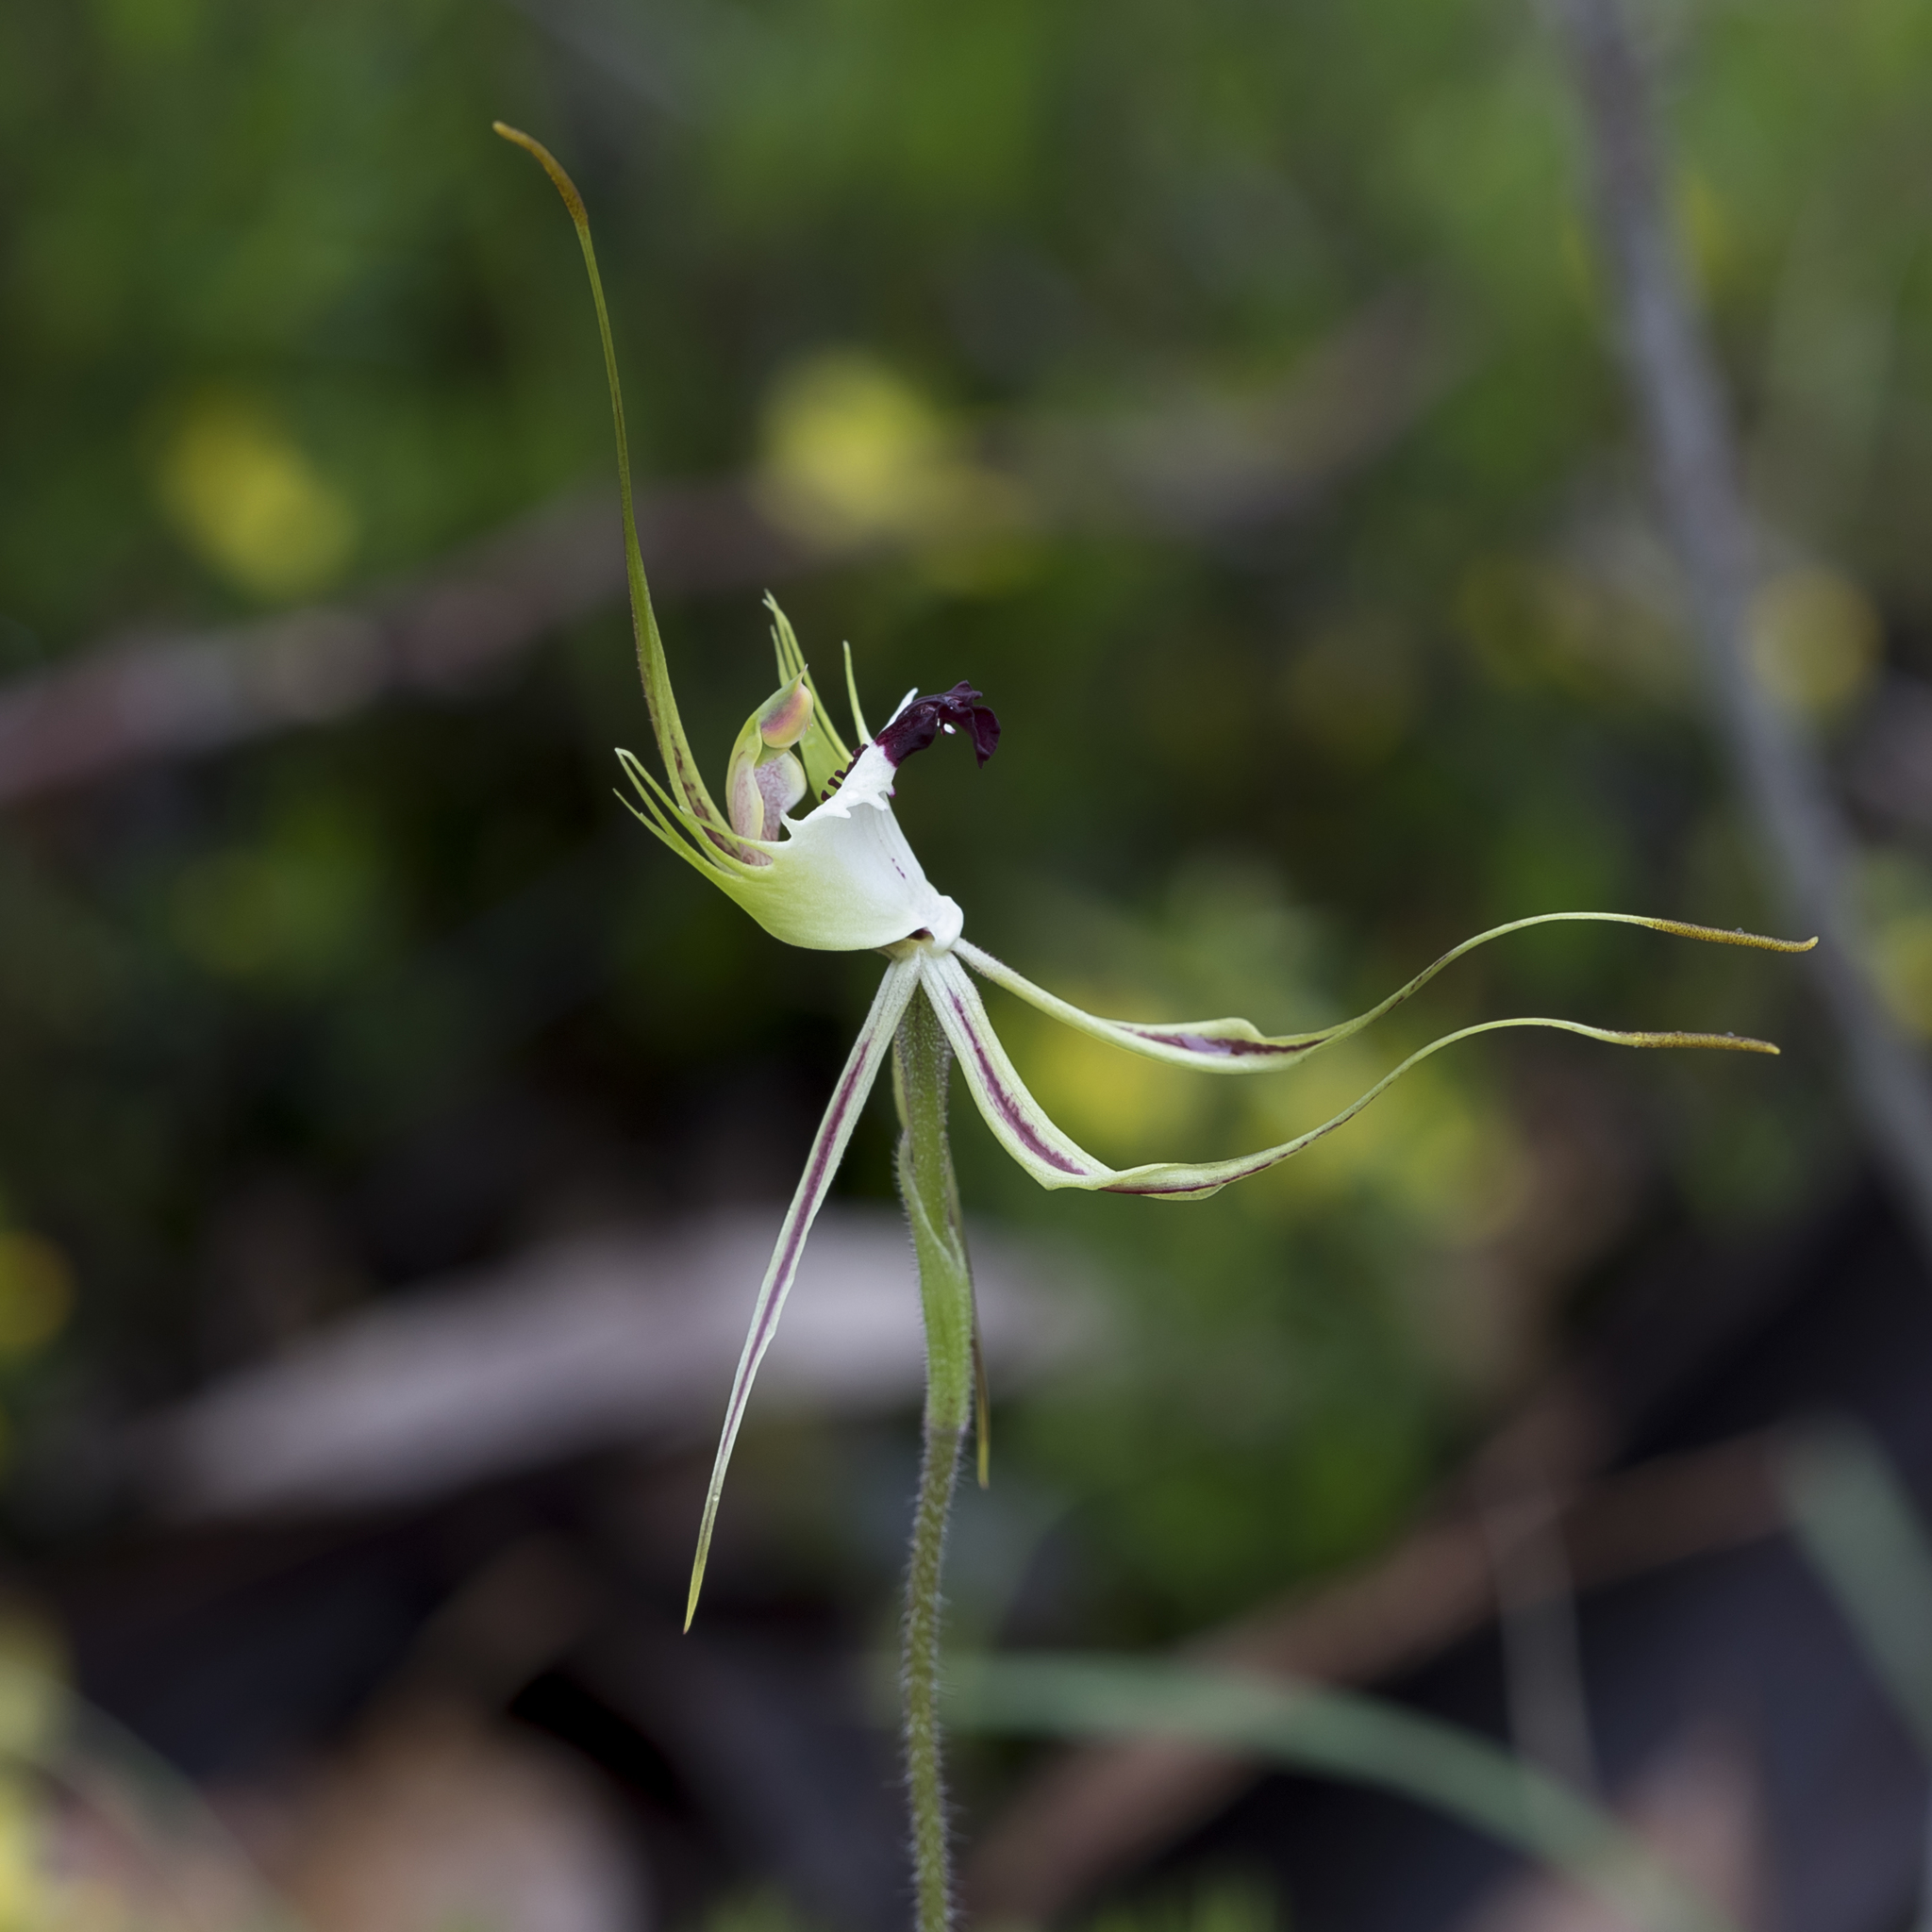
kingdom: Plantae
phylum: Tracheophyta
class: Liliopsida
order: Asparagales
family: Orchidaceae
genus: Caladenia
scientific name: Caladenia tentaculata
